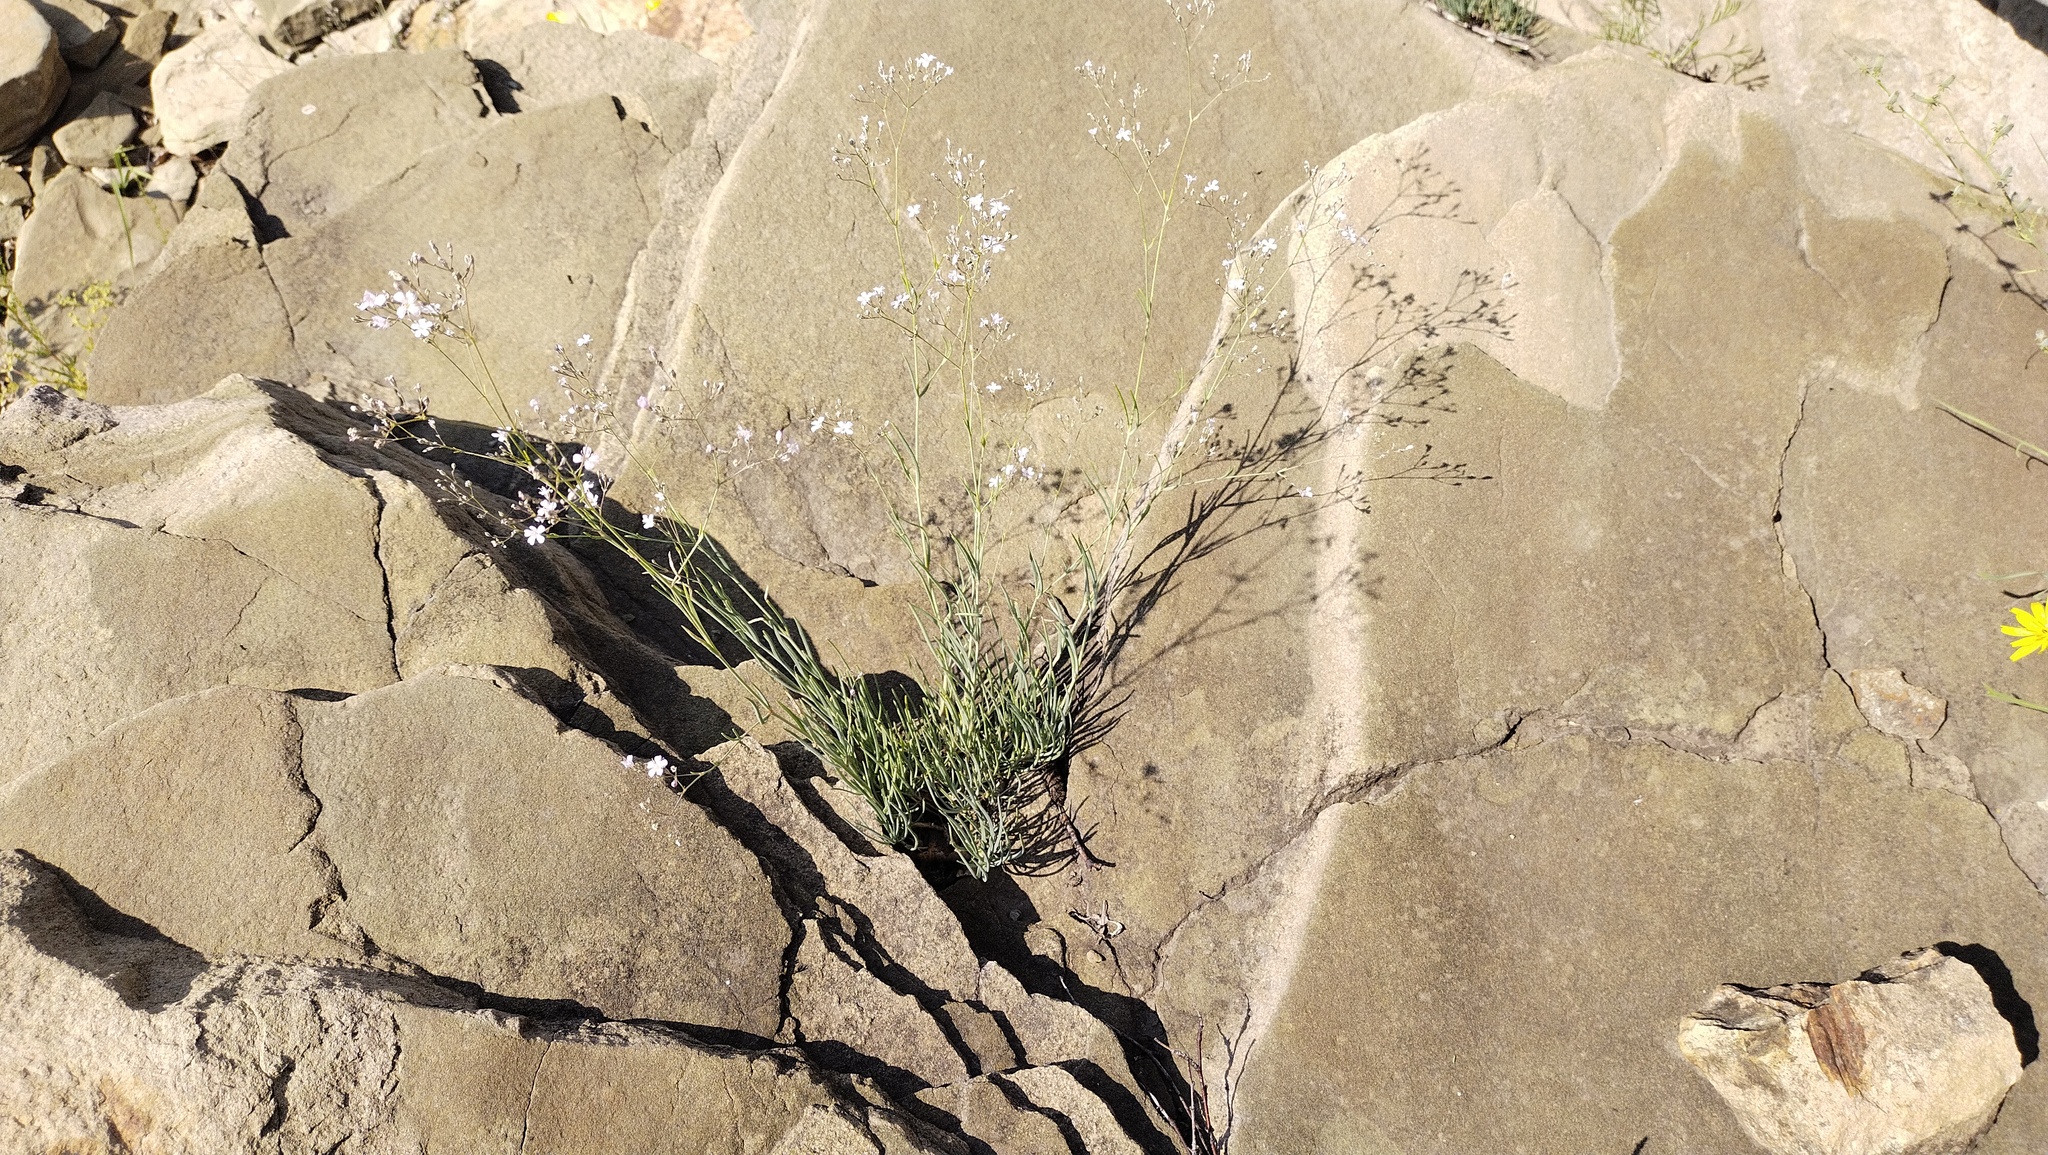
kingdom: Plantae
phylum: Tracheophyta
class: Magnoliopsida
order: Caryophyllales
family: Caryophyllaceae
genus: Gypsophila
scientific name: Gypsophila patrinii
